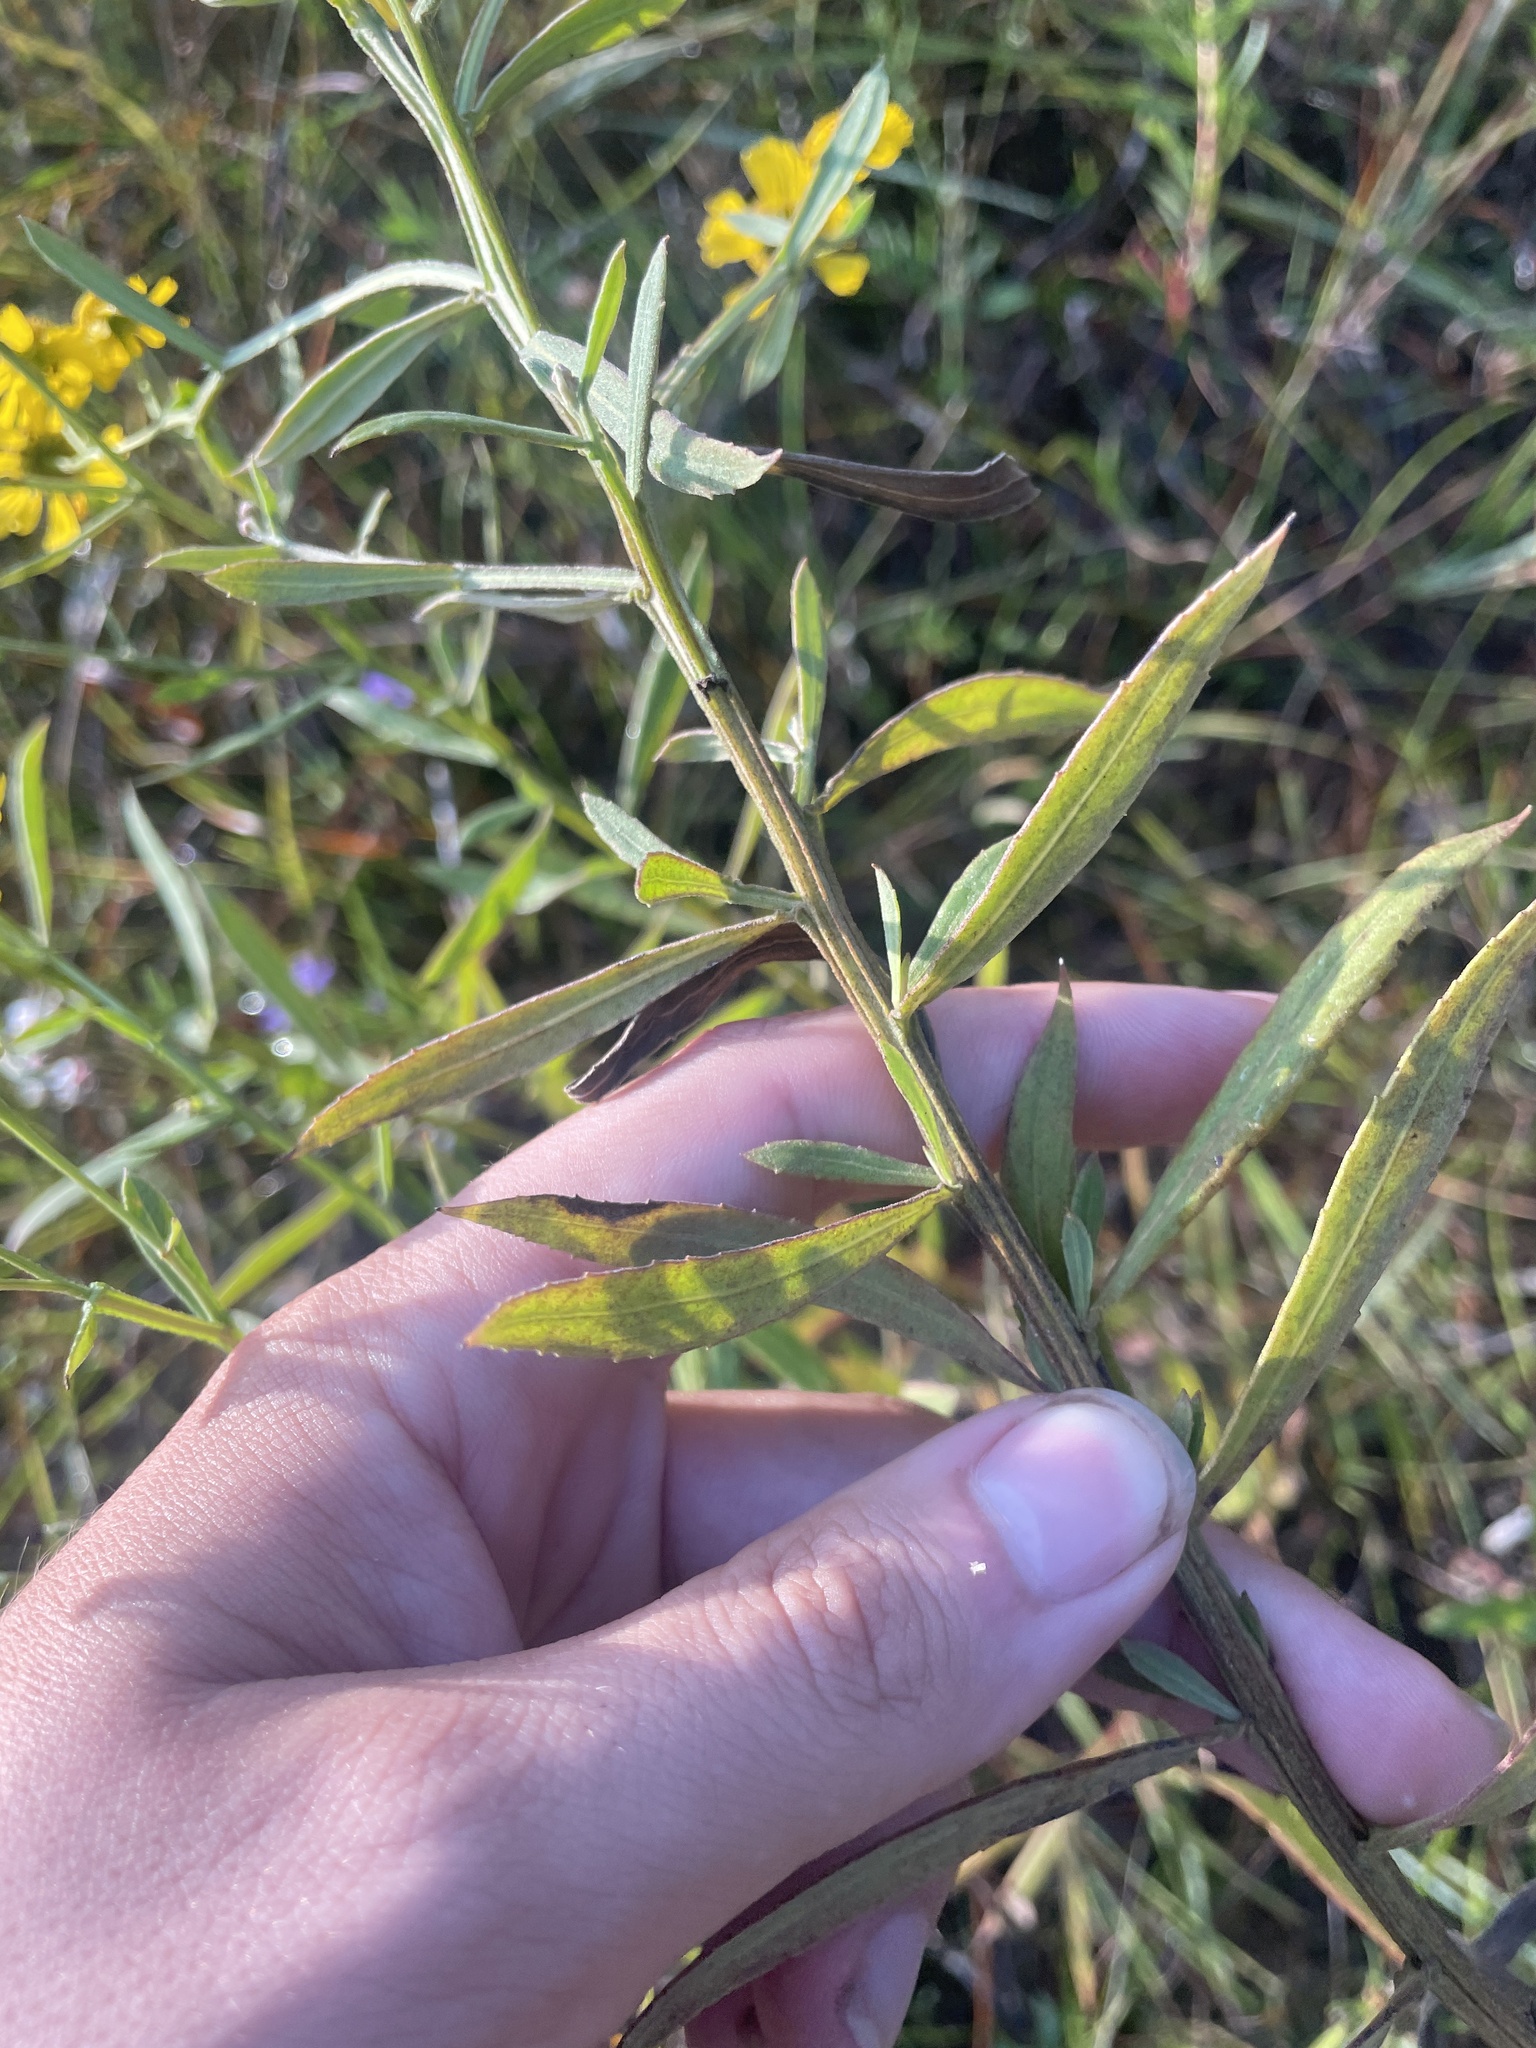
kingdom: Plantae
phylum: Tracheophyta
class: Magnoliopsida
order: Asterales
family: Asteraceae
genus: Helenium
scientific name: Helenium autumnale
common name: Sneezeweed
